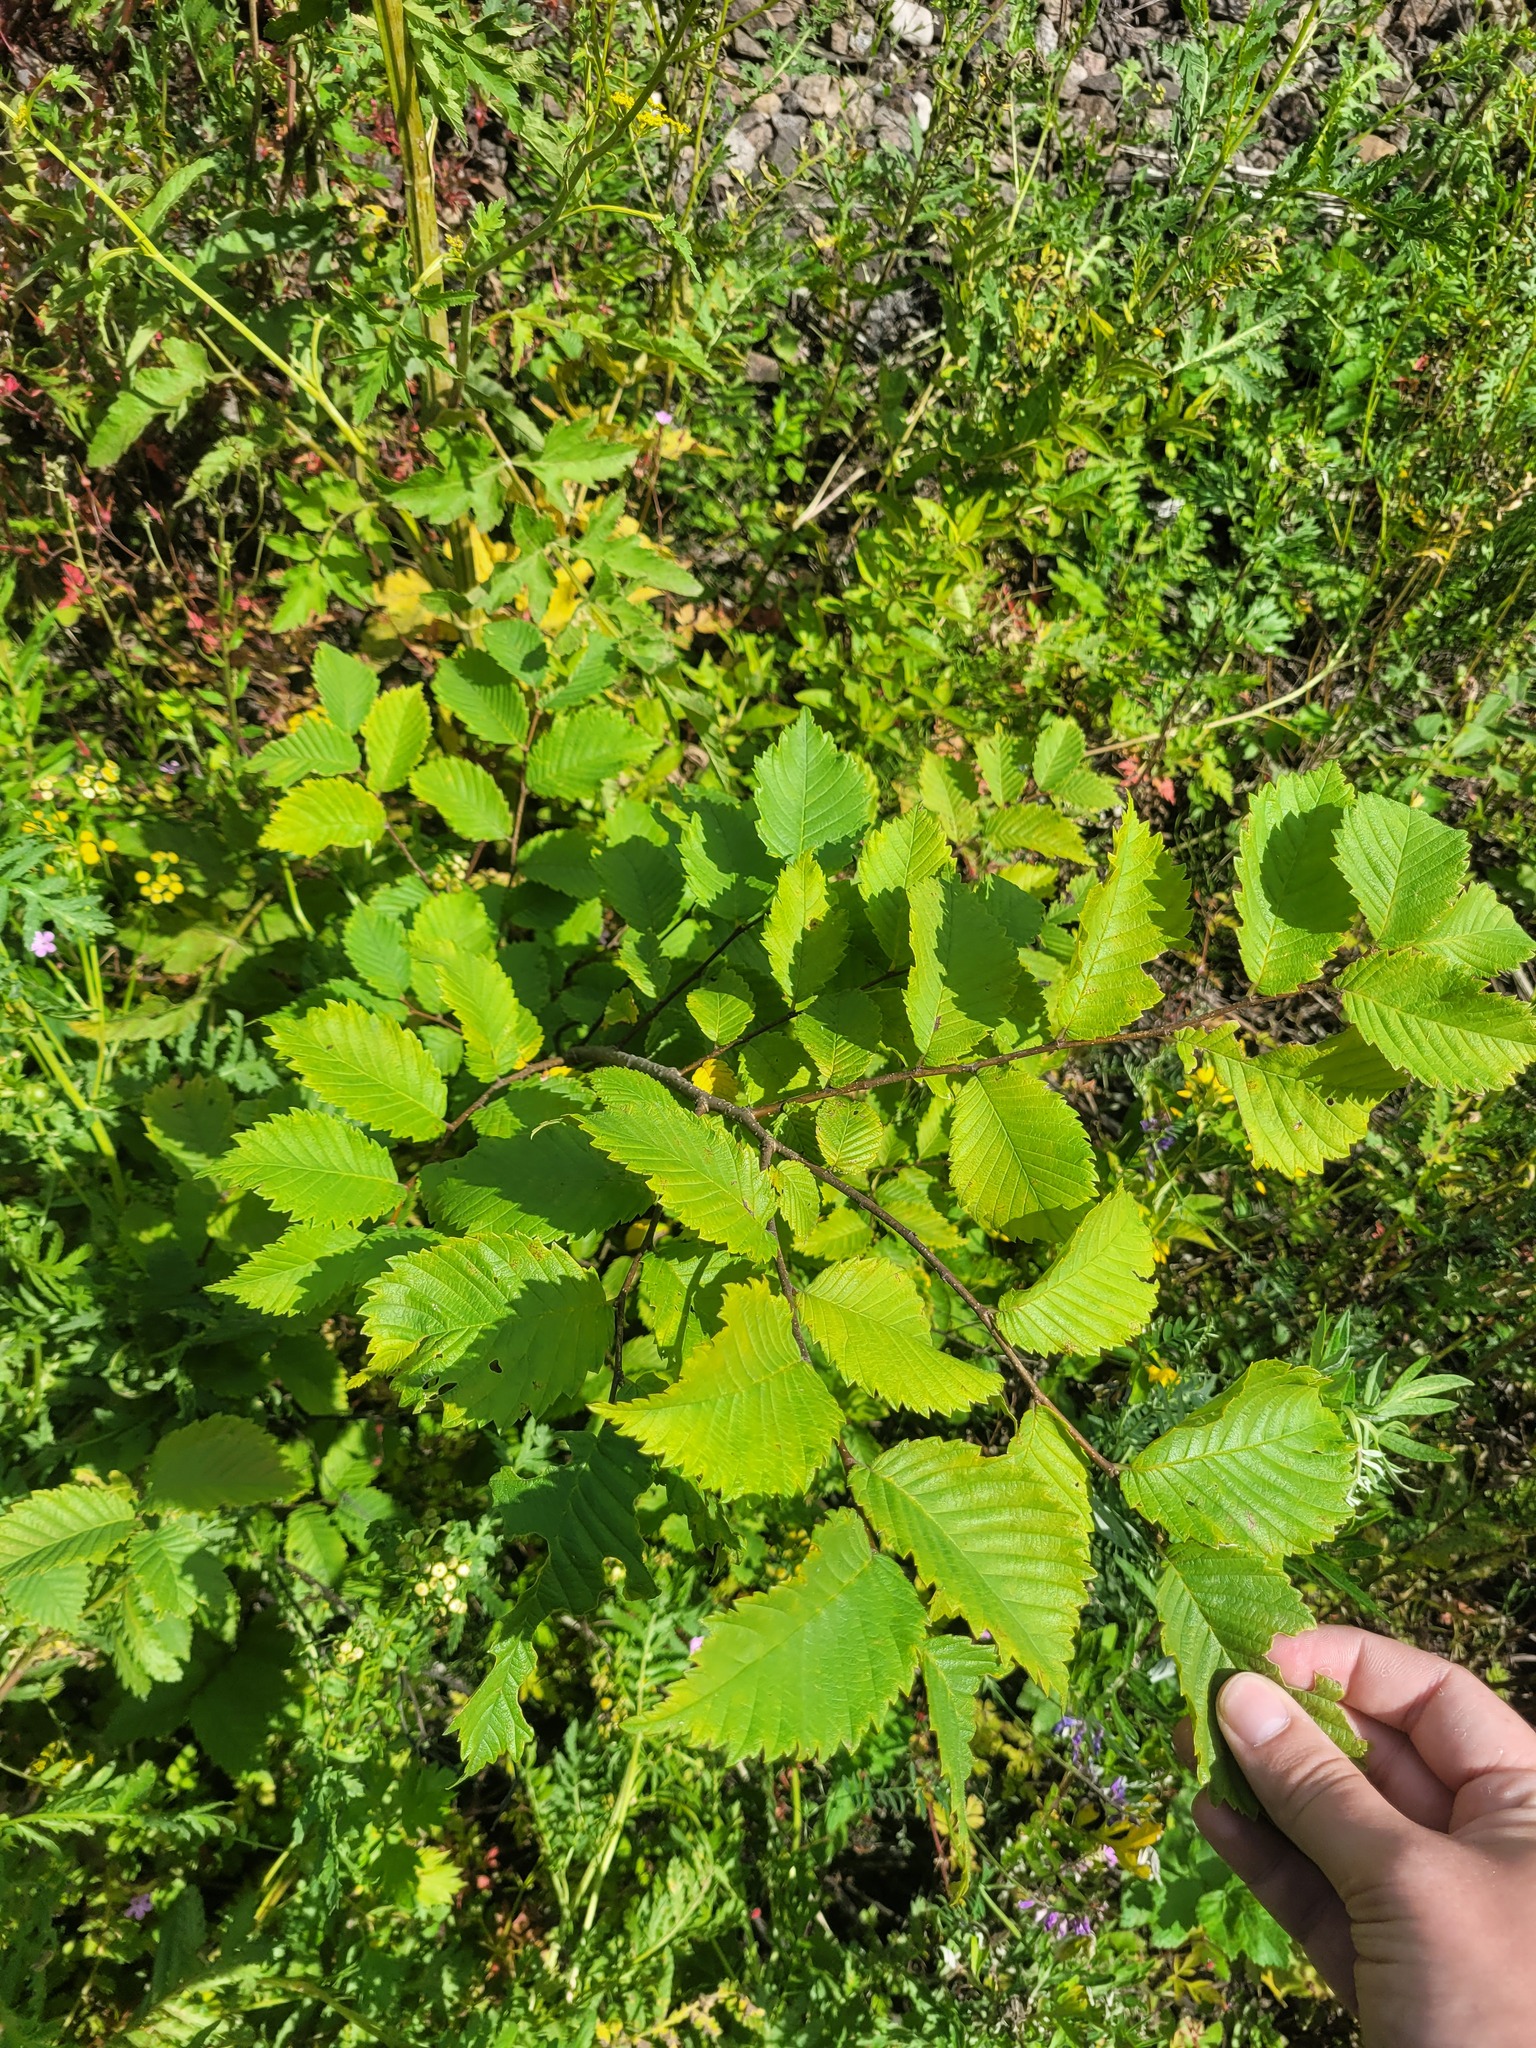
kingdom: Plantae
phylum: Tracheophyta
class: Magnoliopsida
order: Rosales
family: Ulmaceae
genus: Ulmus
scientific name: Ulmus laevis
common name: European white-elm
